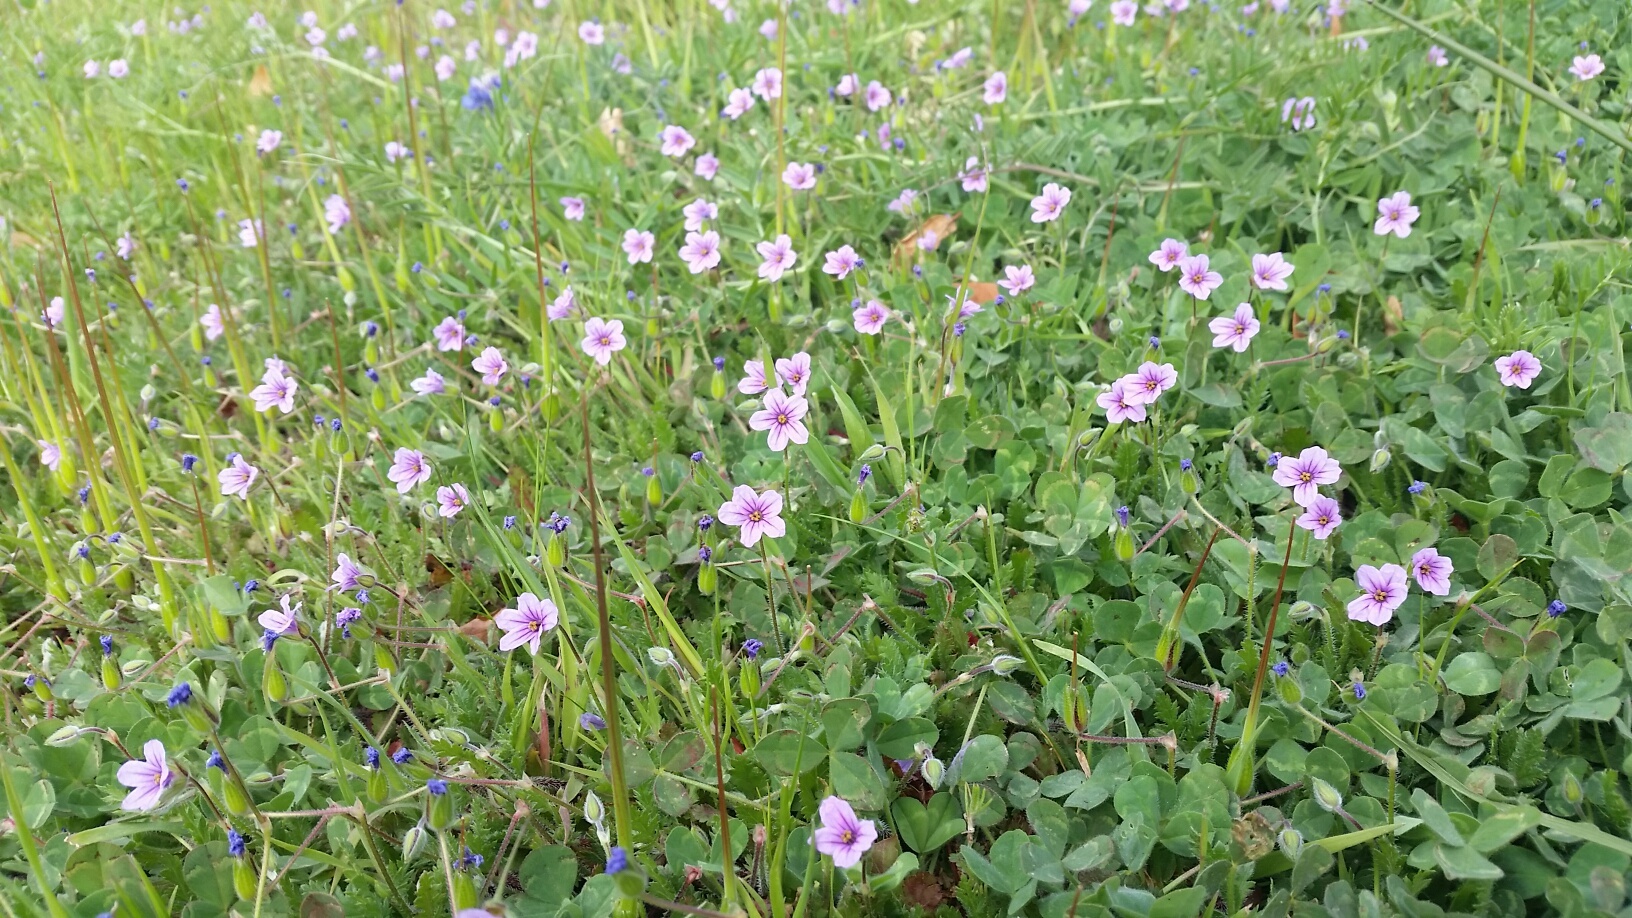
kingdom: Plantae
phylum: Tracheophyta
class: Magnoliopsida
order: Geraniales
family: Geraniaceae
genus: Erodium
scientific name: Erodium botrys
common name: Mediterranean stork's-bill
